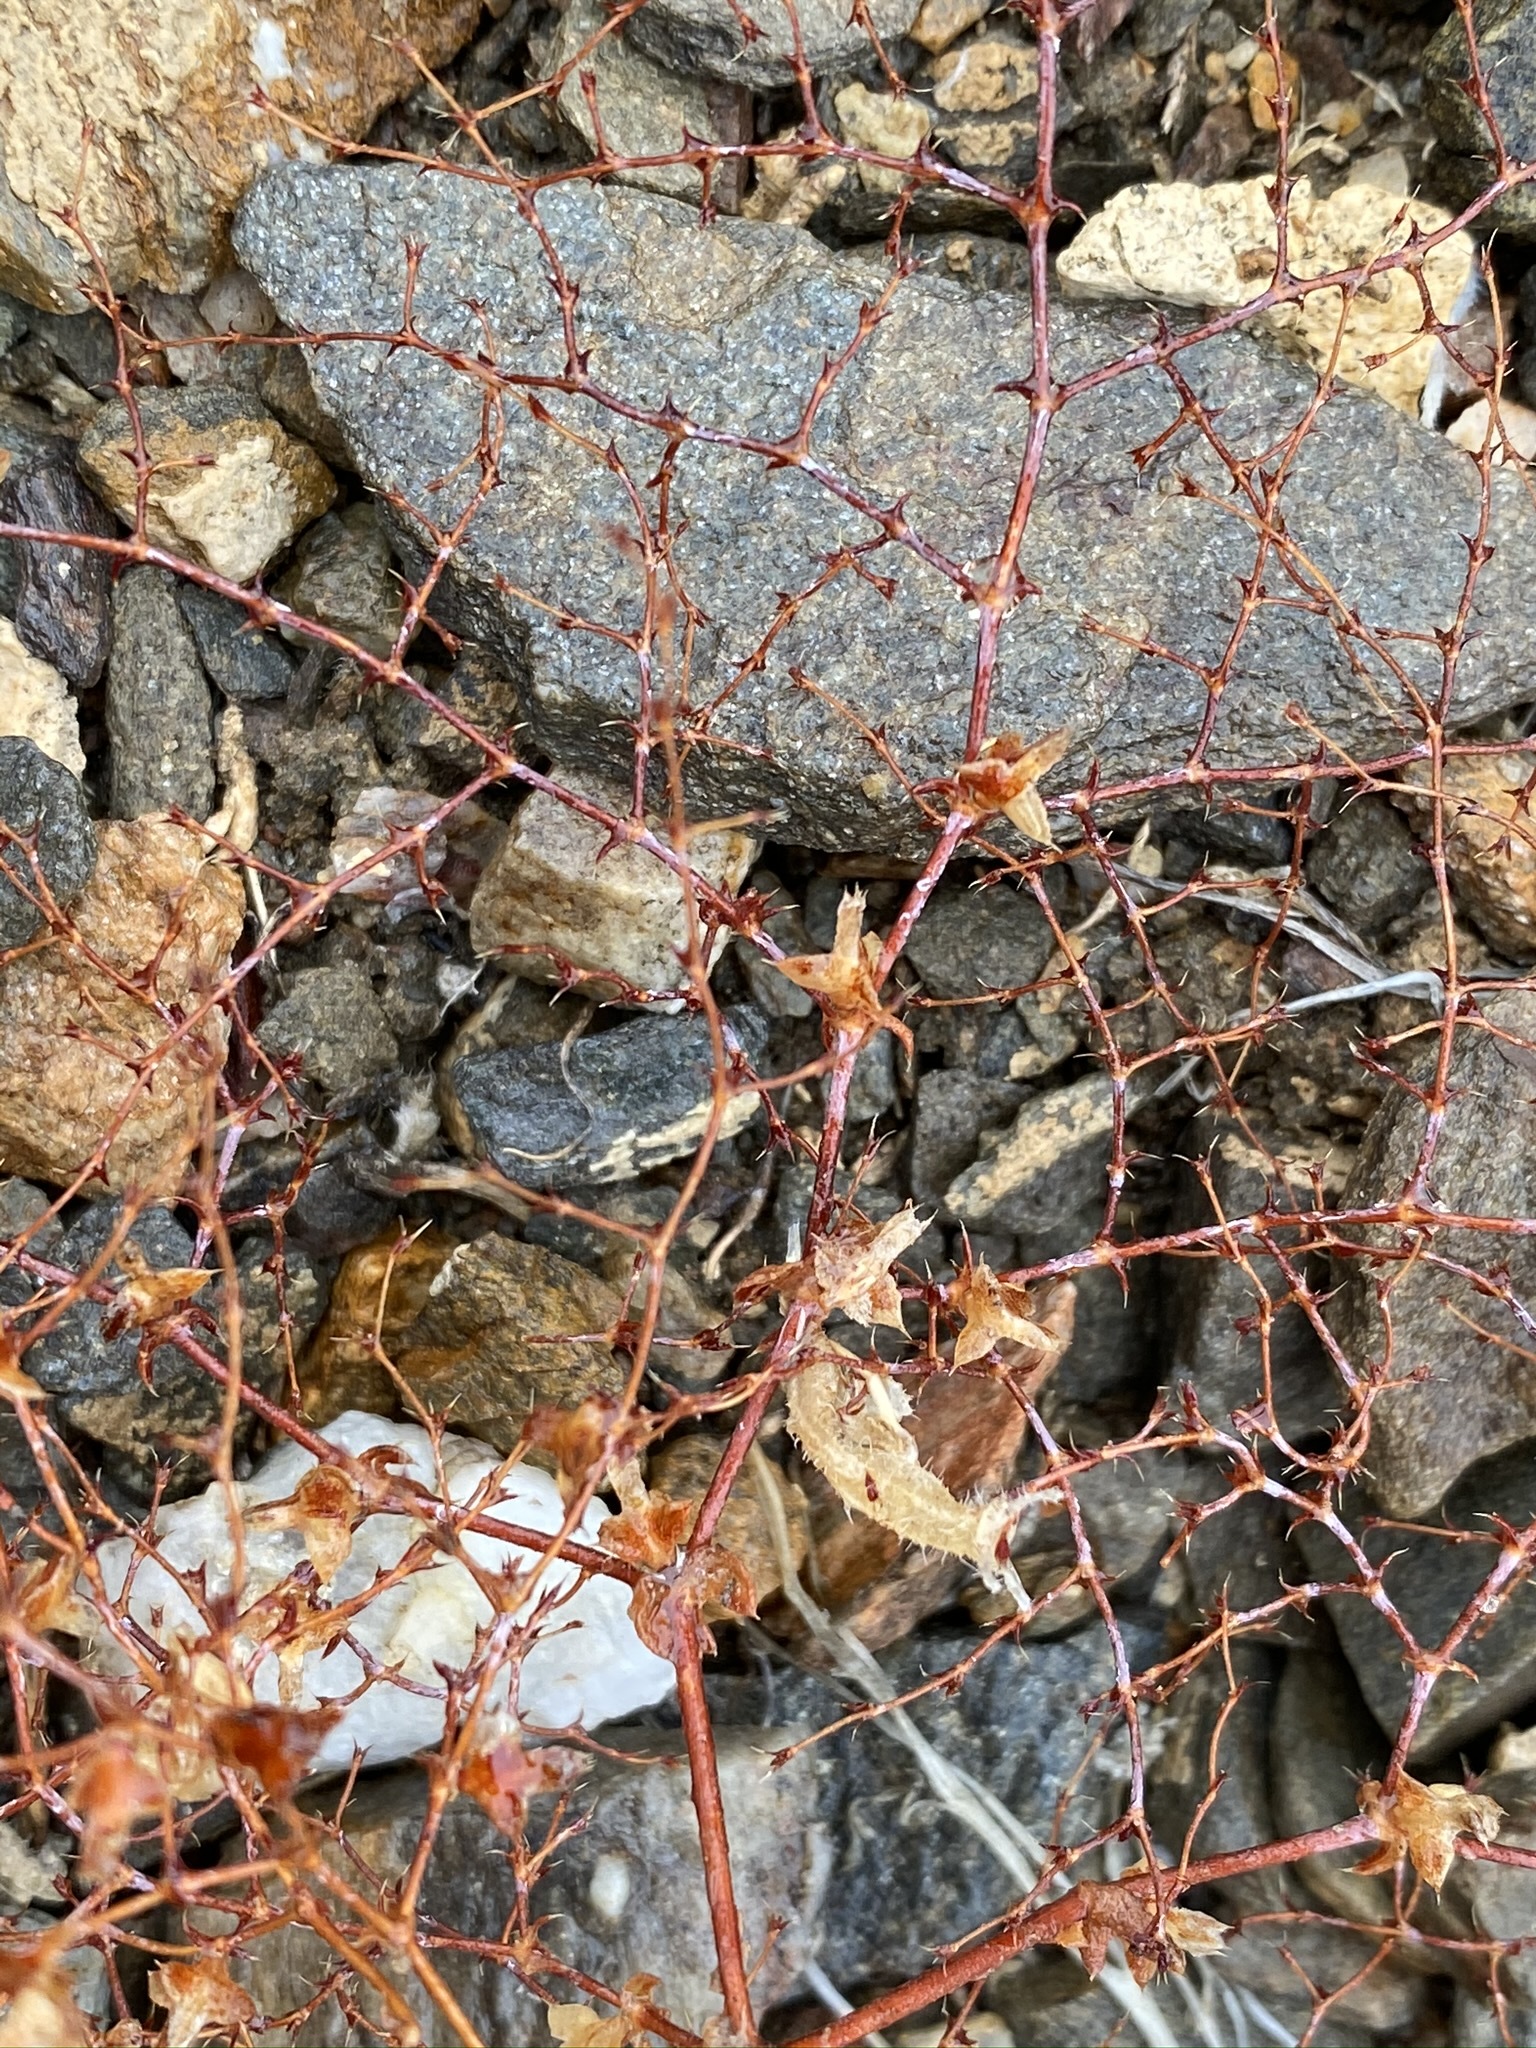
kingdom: Plantae
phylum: Tracheophyta
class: Magnoliopsida
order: Caryophyllales
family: Polygonaceae
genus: Centrostegia
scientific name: Centrostegia thurberi
